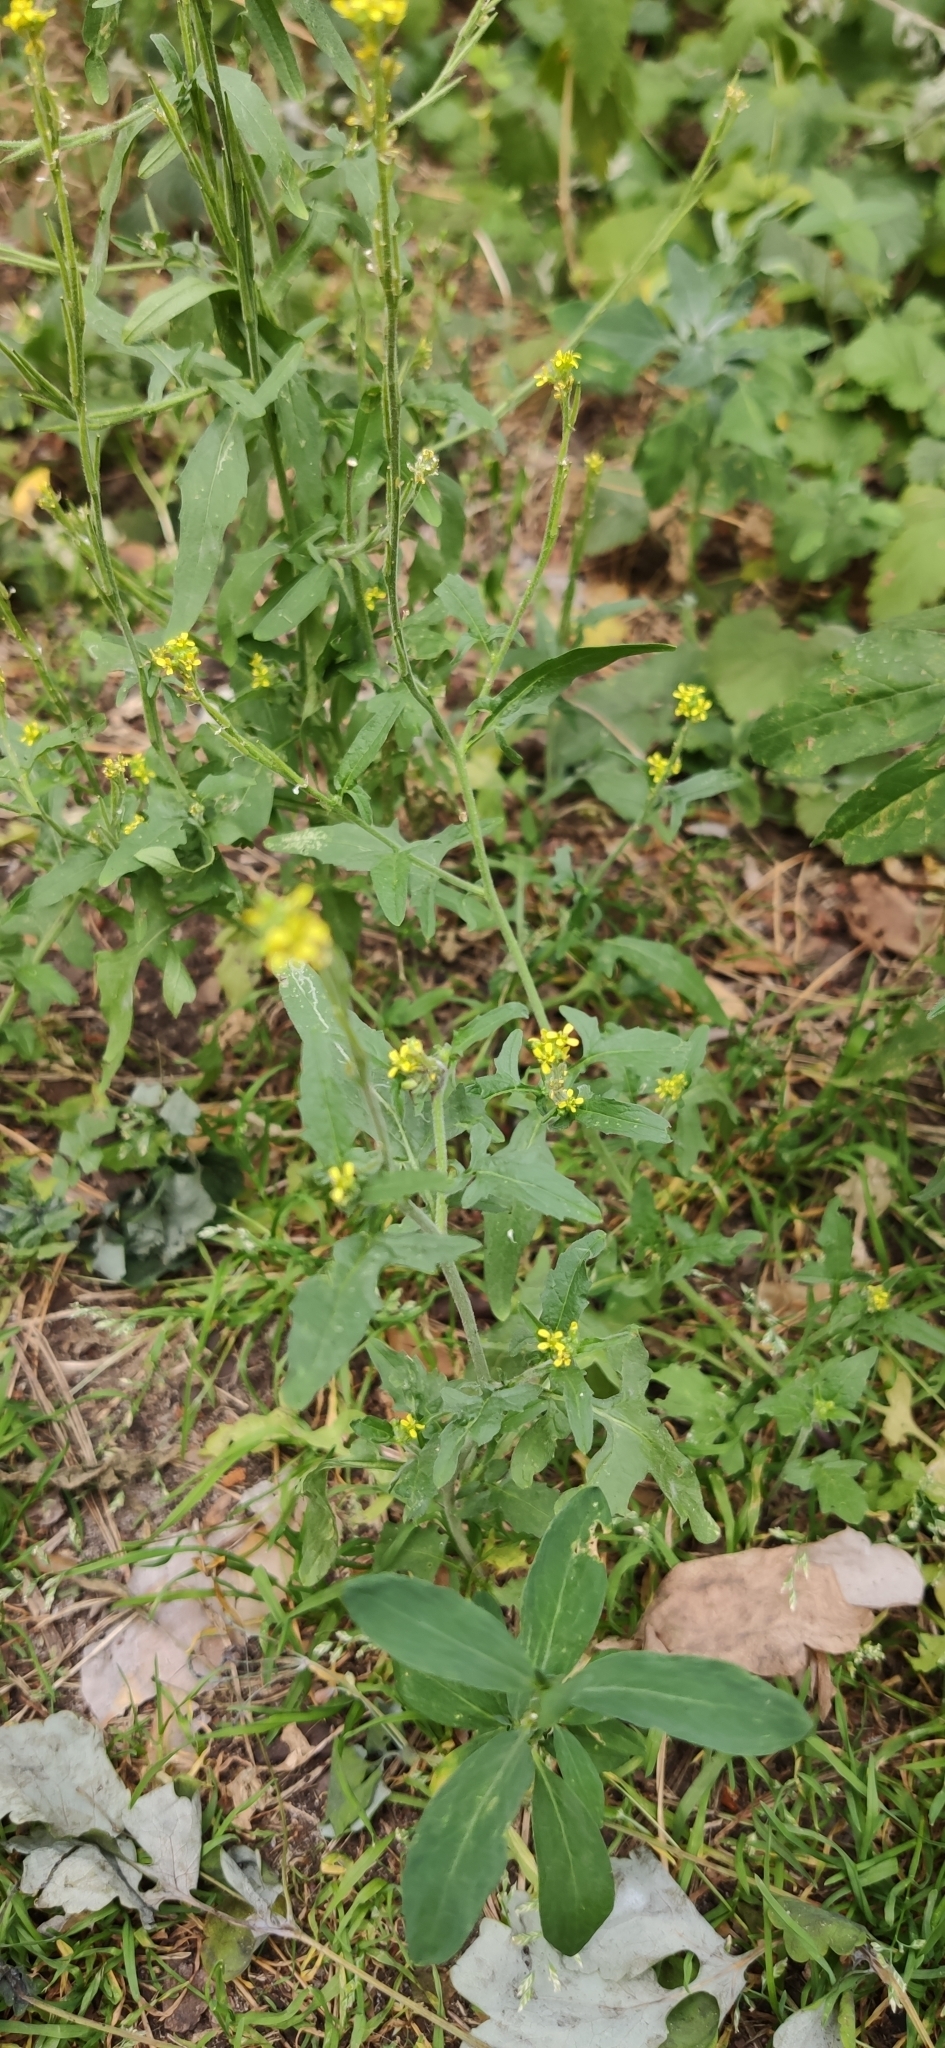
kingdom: Plantae
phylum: Tracheophyta
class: Magnoliopsida
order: Brassicales
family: Brassicaceae
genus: Sisymbrium
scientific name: Sisymbrium officinale
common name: Hedge mustard
